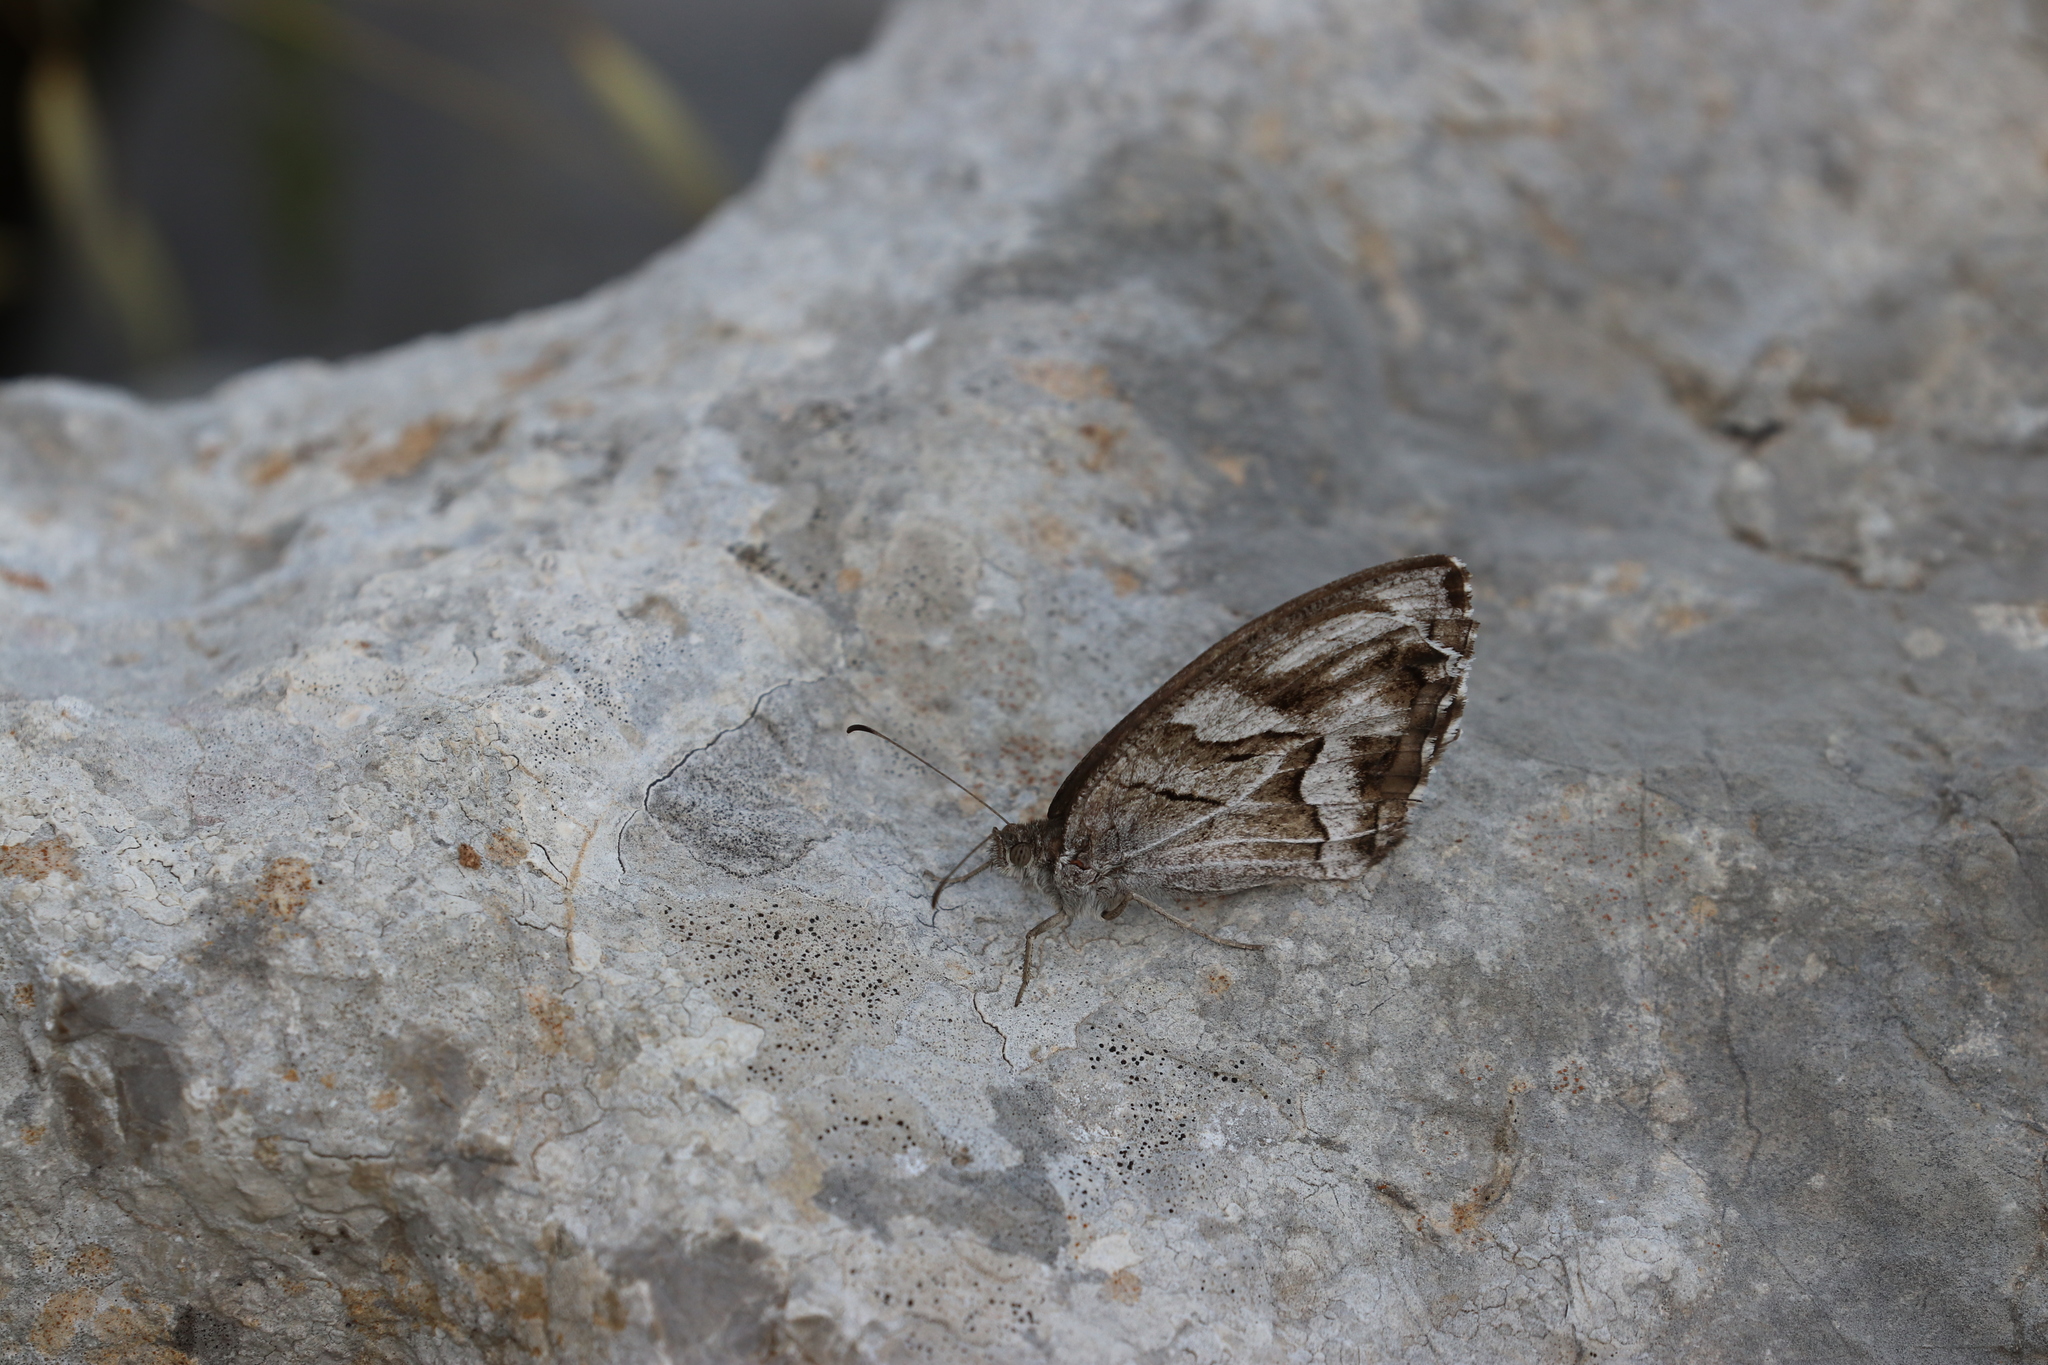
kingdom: Animalia
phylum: Arthropoda
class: Insecta
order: Lepidoptera
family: Nymphalidae
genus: Hipparchia
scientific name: Hipparchia fidia
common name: Striped grayling
